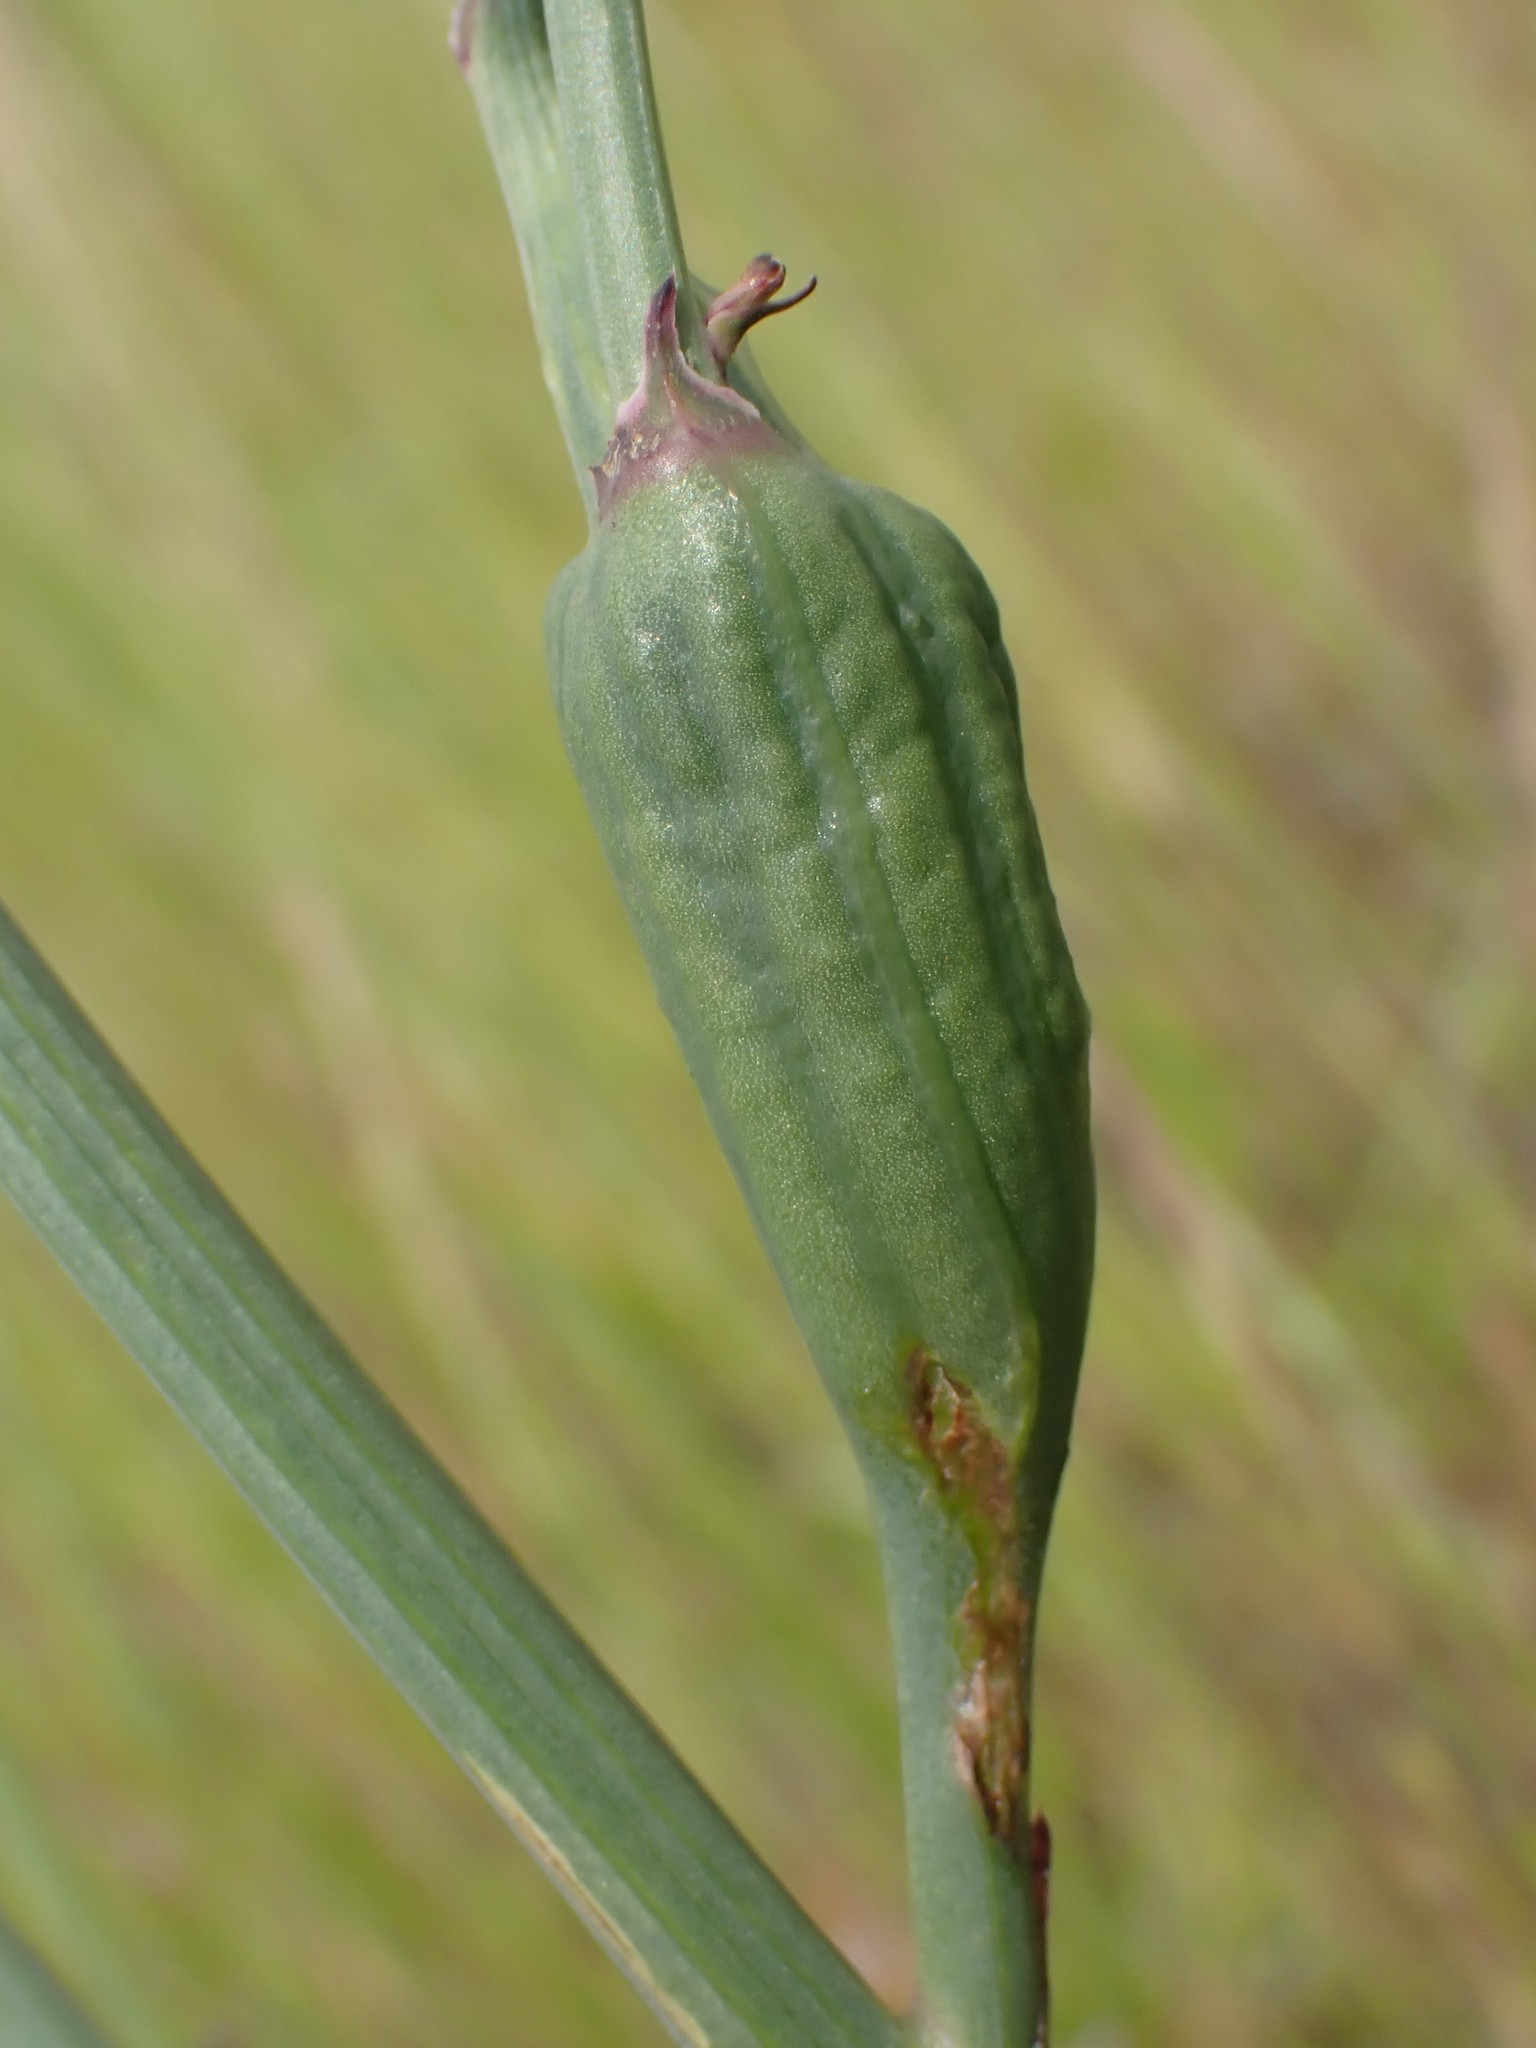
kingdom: Animalia
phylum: Arthropoda
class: Insecta
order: Hymenoptera
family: Cynipidae
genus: Phanacis
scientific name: Phanacis hypochoeridis
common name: Gall wasp
